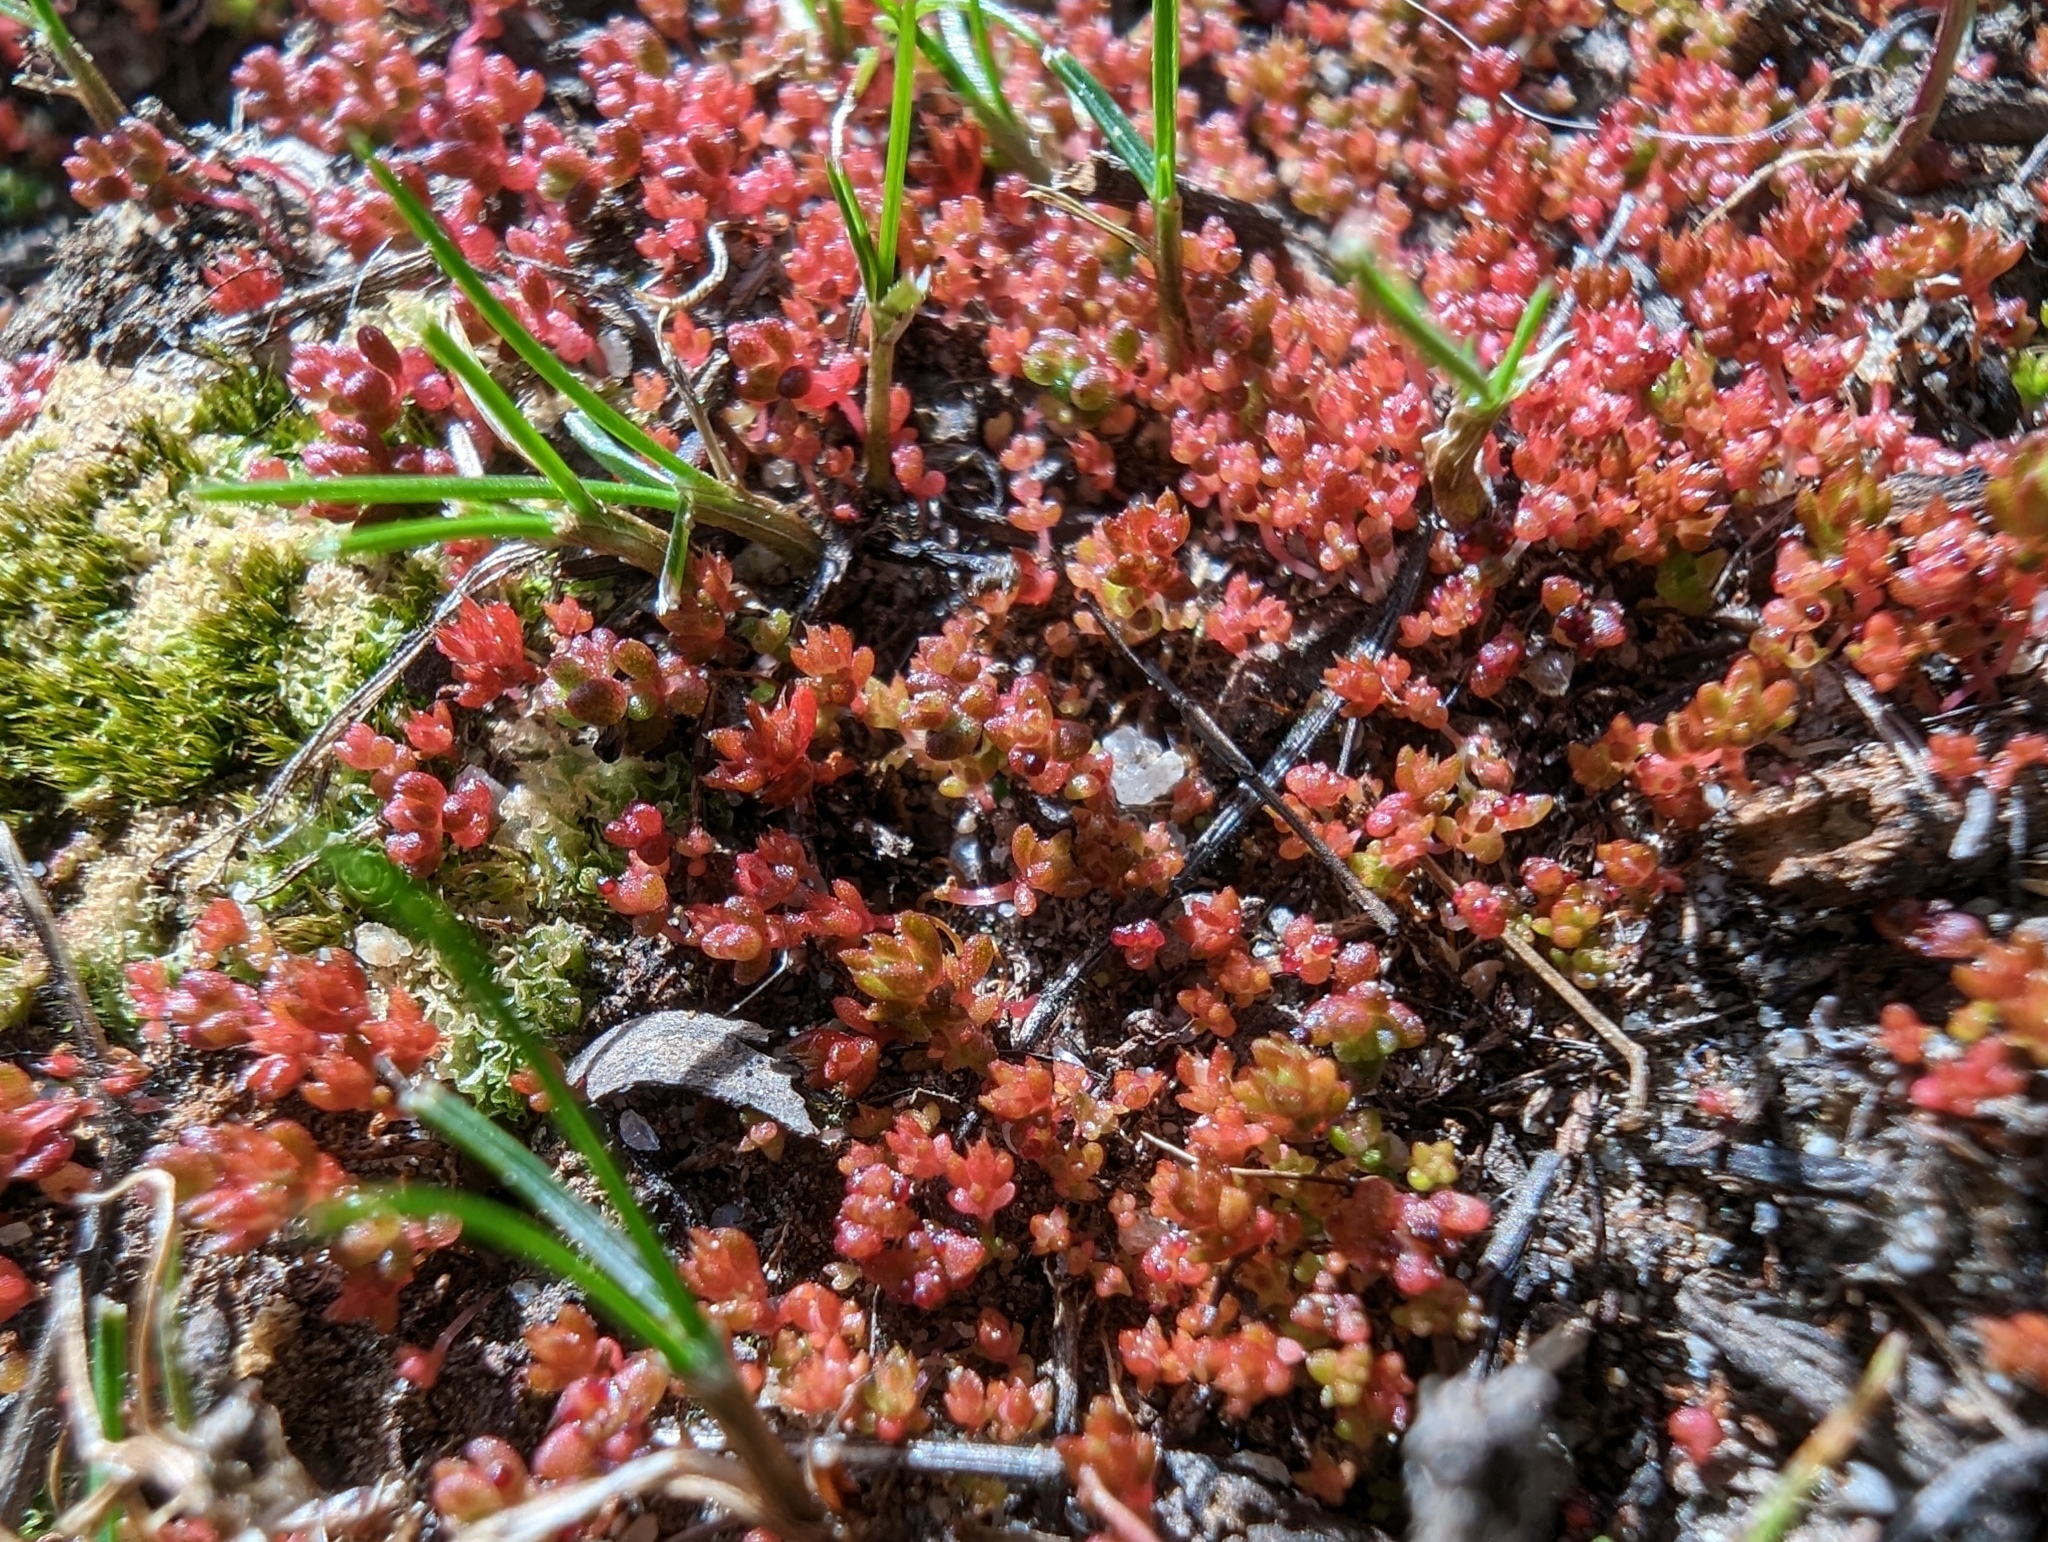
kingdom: Plantae
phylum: Tracheophyta
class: Magnoliopsida
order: Saxifragales
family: Crassulaceae
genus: Crassula
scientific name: Crassula connata
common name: Erect pygmyweed
